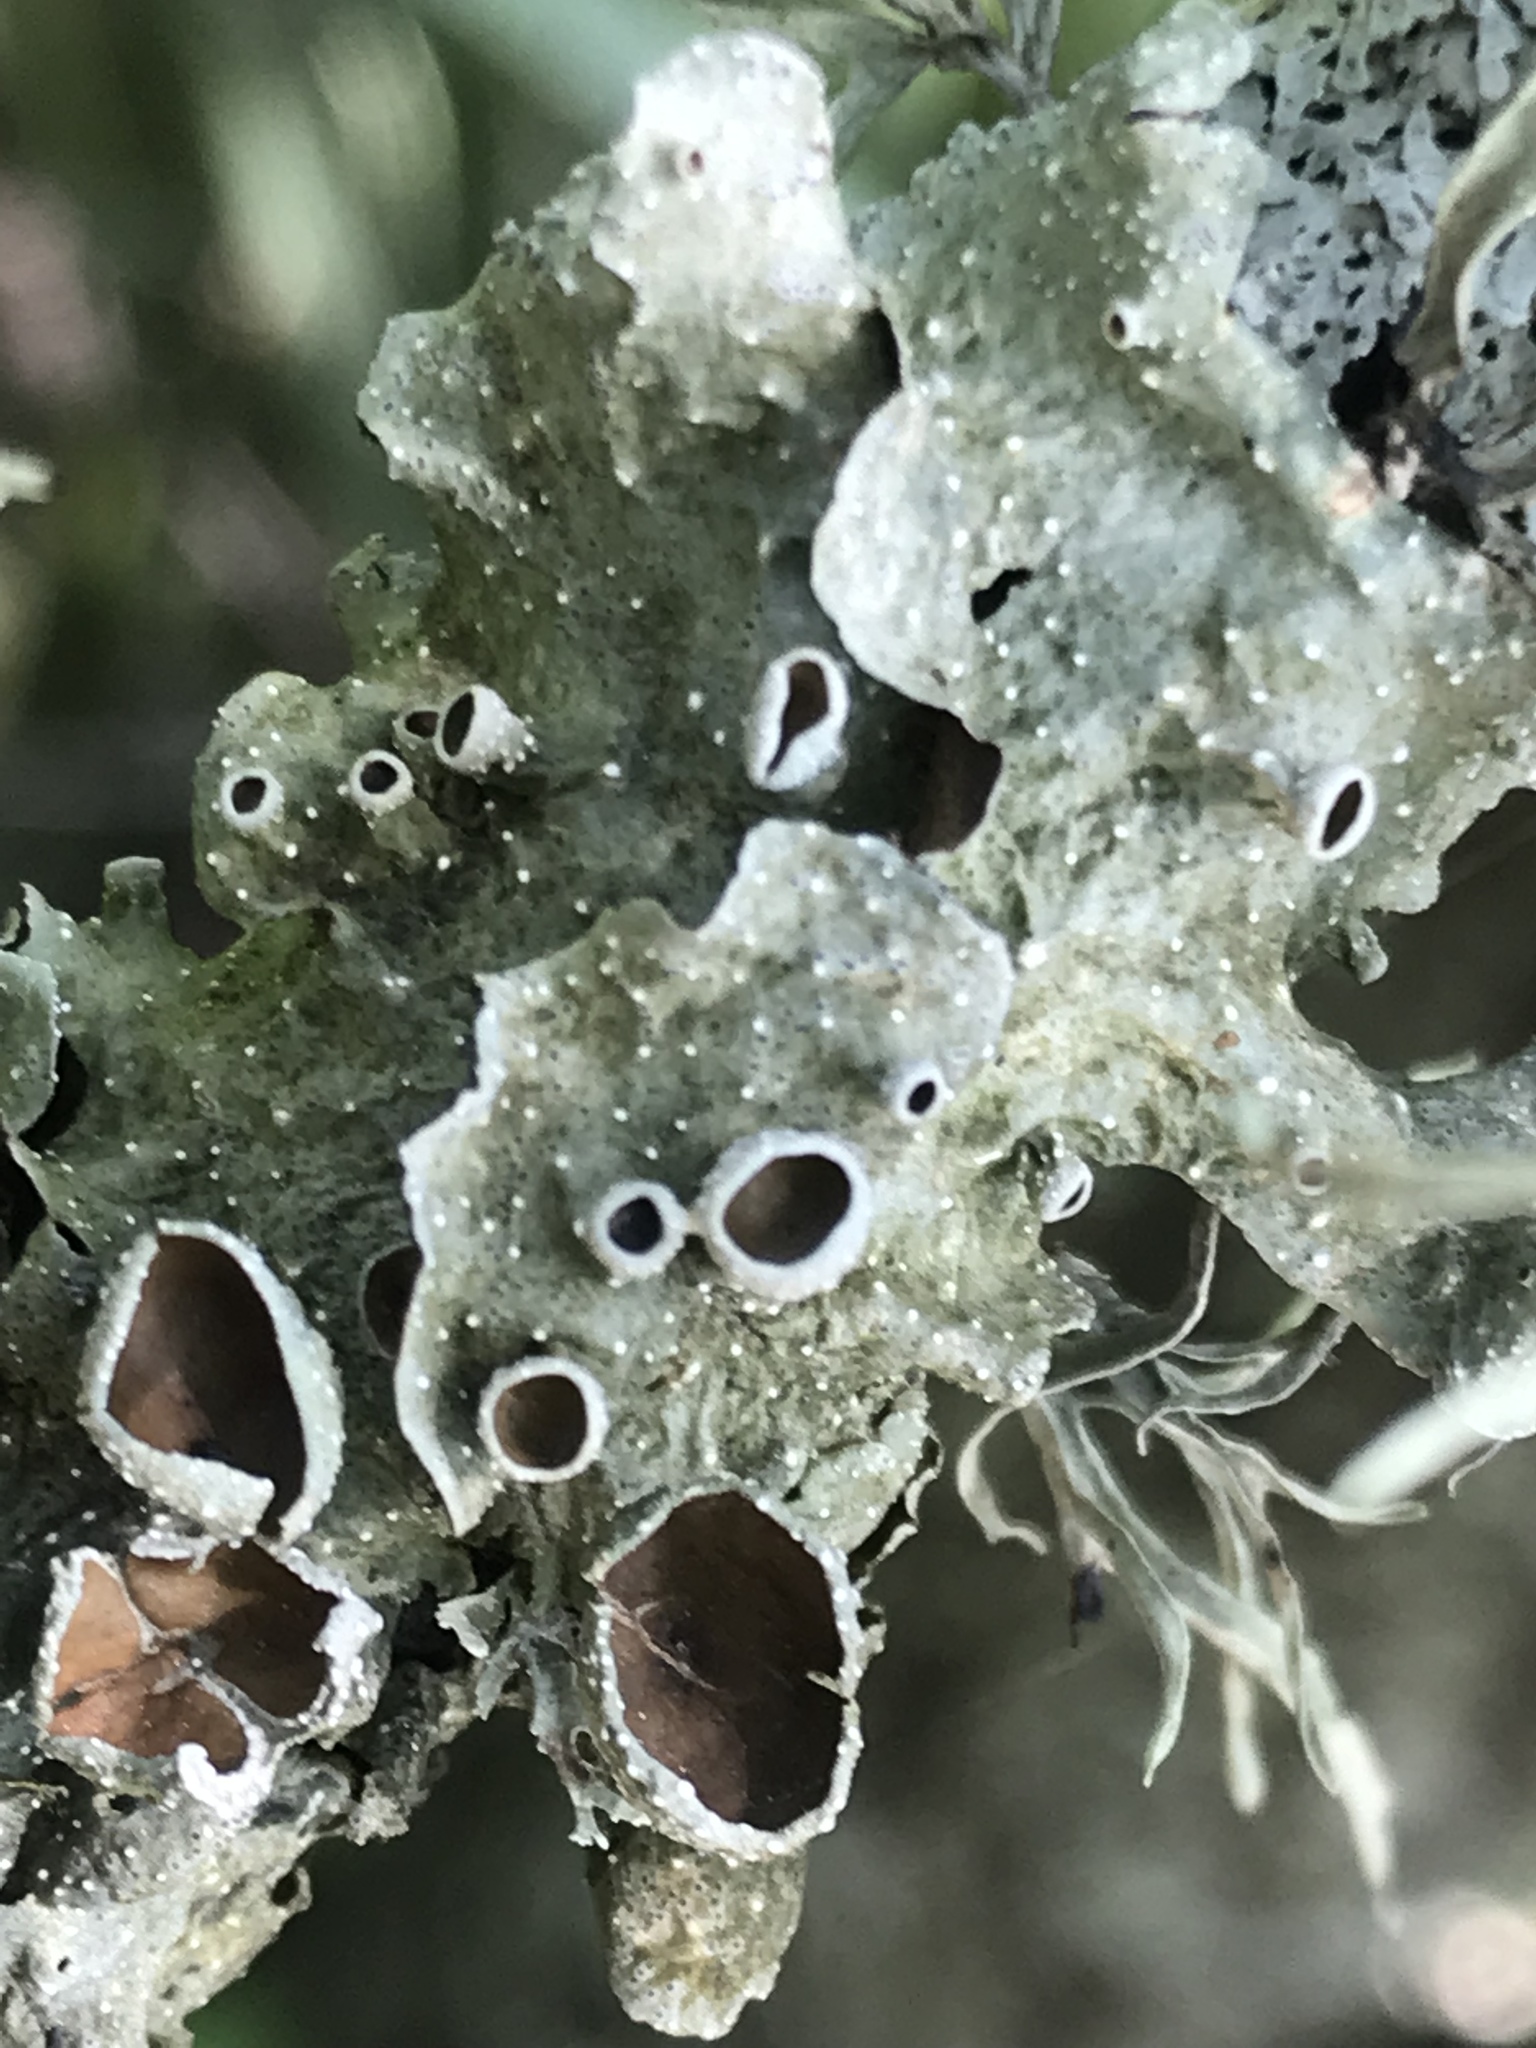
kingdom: Fungi
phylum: Ascomycota
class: Lecanoromycetes
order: Lecanorales
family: Parmeliaceae
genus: Punctelia
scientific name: Punctelia bolliana
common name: Eastern speckled shield lichen
